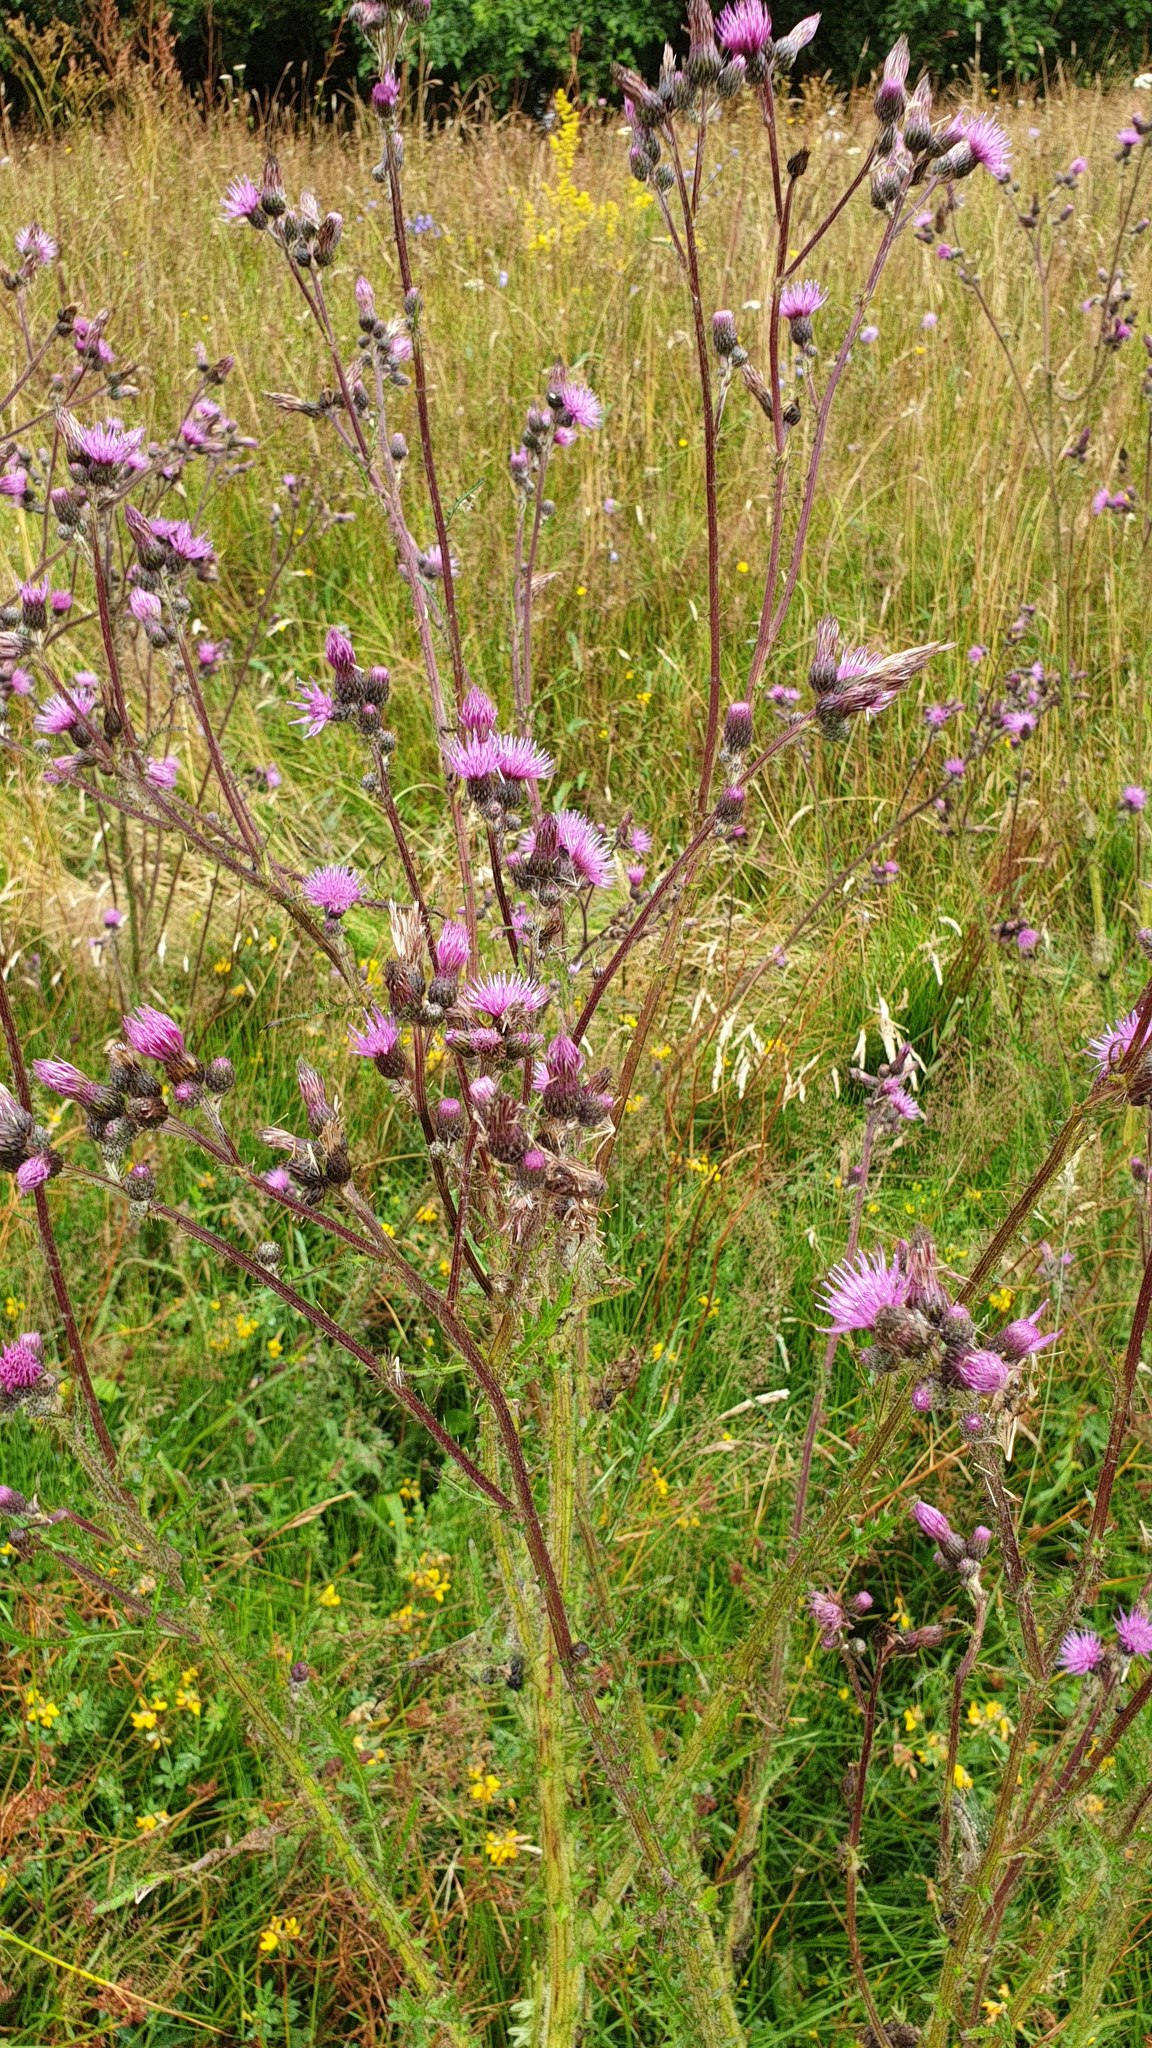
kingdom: Plantae
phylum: Tracheophyta
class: Magnoliopsida
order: Asterales
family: Asteraceae
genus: Cirsium
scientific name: Cirsium palustre
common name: Marsh thistle
